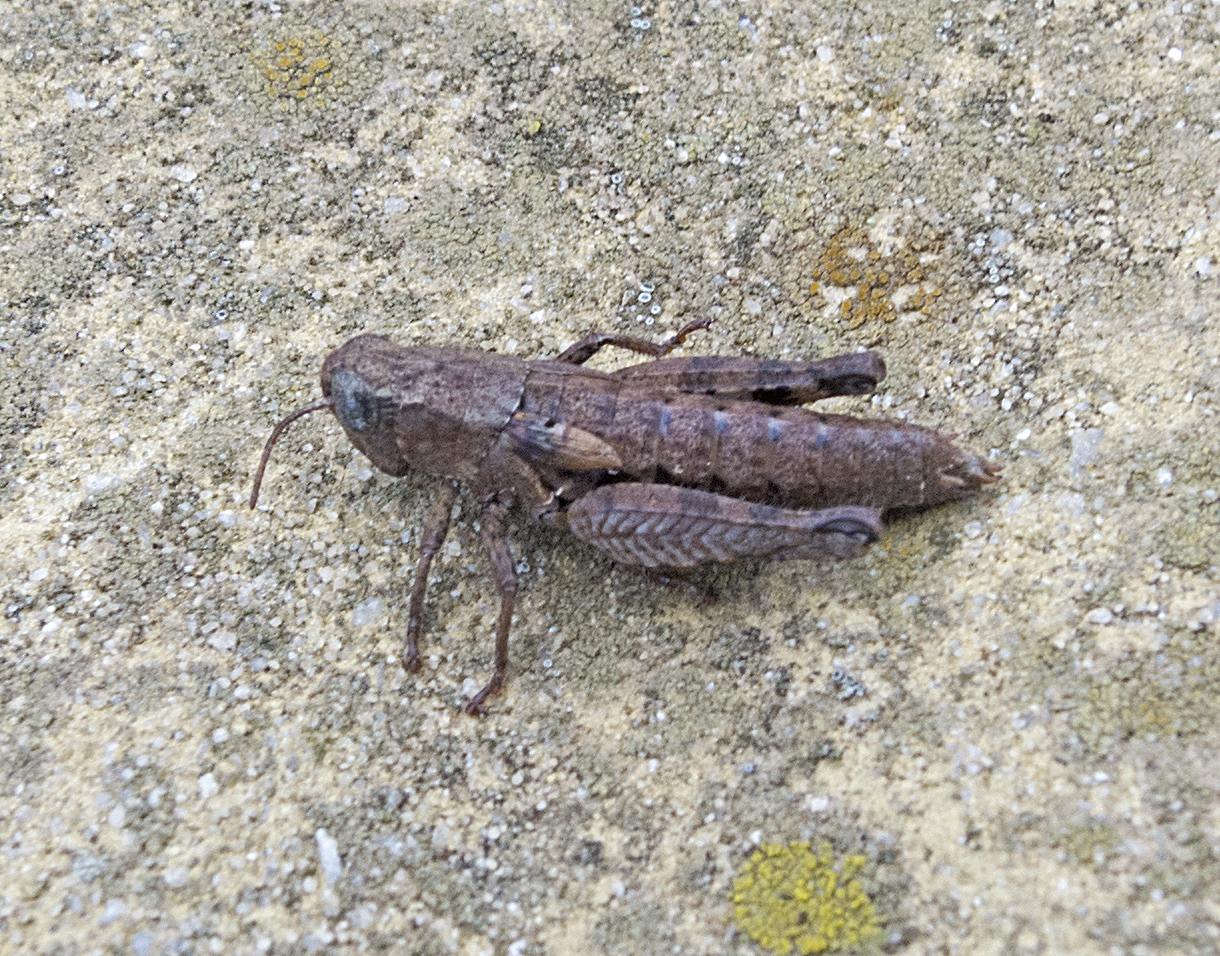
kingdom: Animalia
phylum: Arthropoda
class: Insecta
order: Orthoptera
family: Acrididae
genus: Pezotettix
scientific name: Pezotettix giornae
